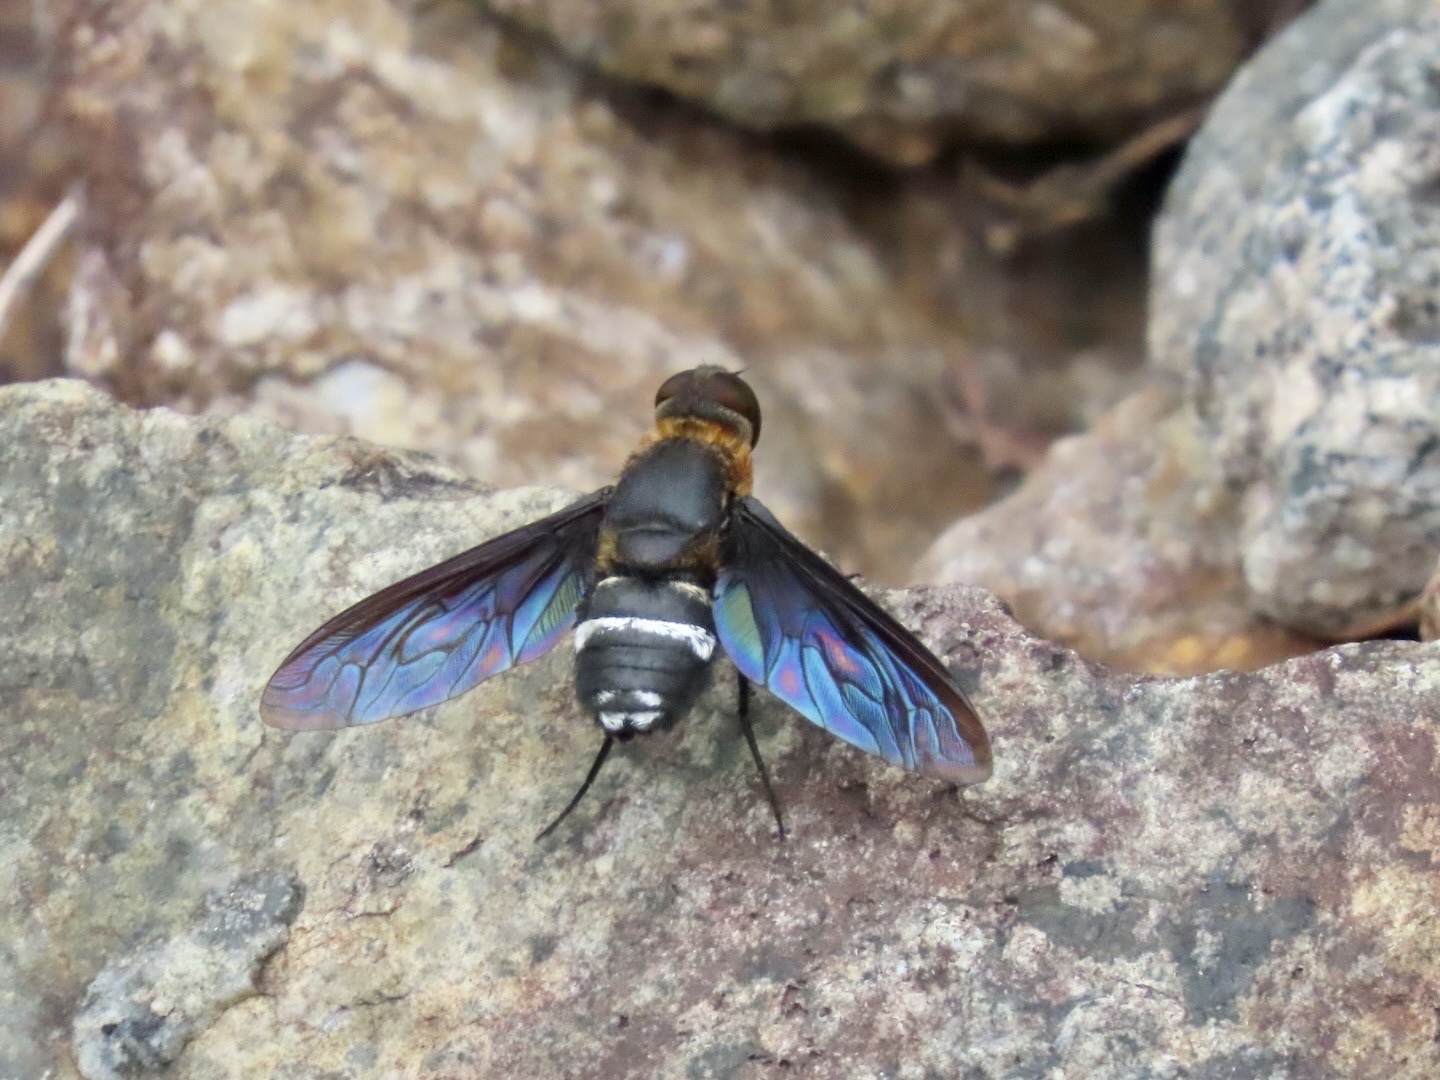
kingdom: Animalia
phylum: Arthropoda
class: Insecta
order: Diptera
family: Bombyliidae
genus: Ligyra
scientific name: Ligyra tantalus
